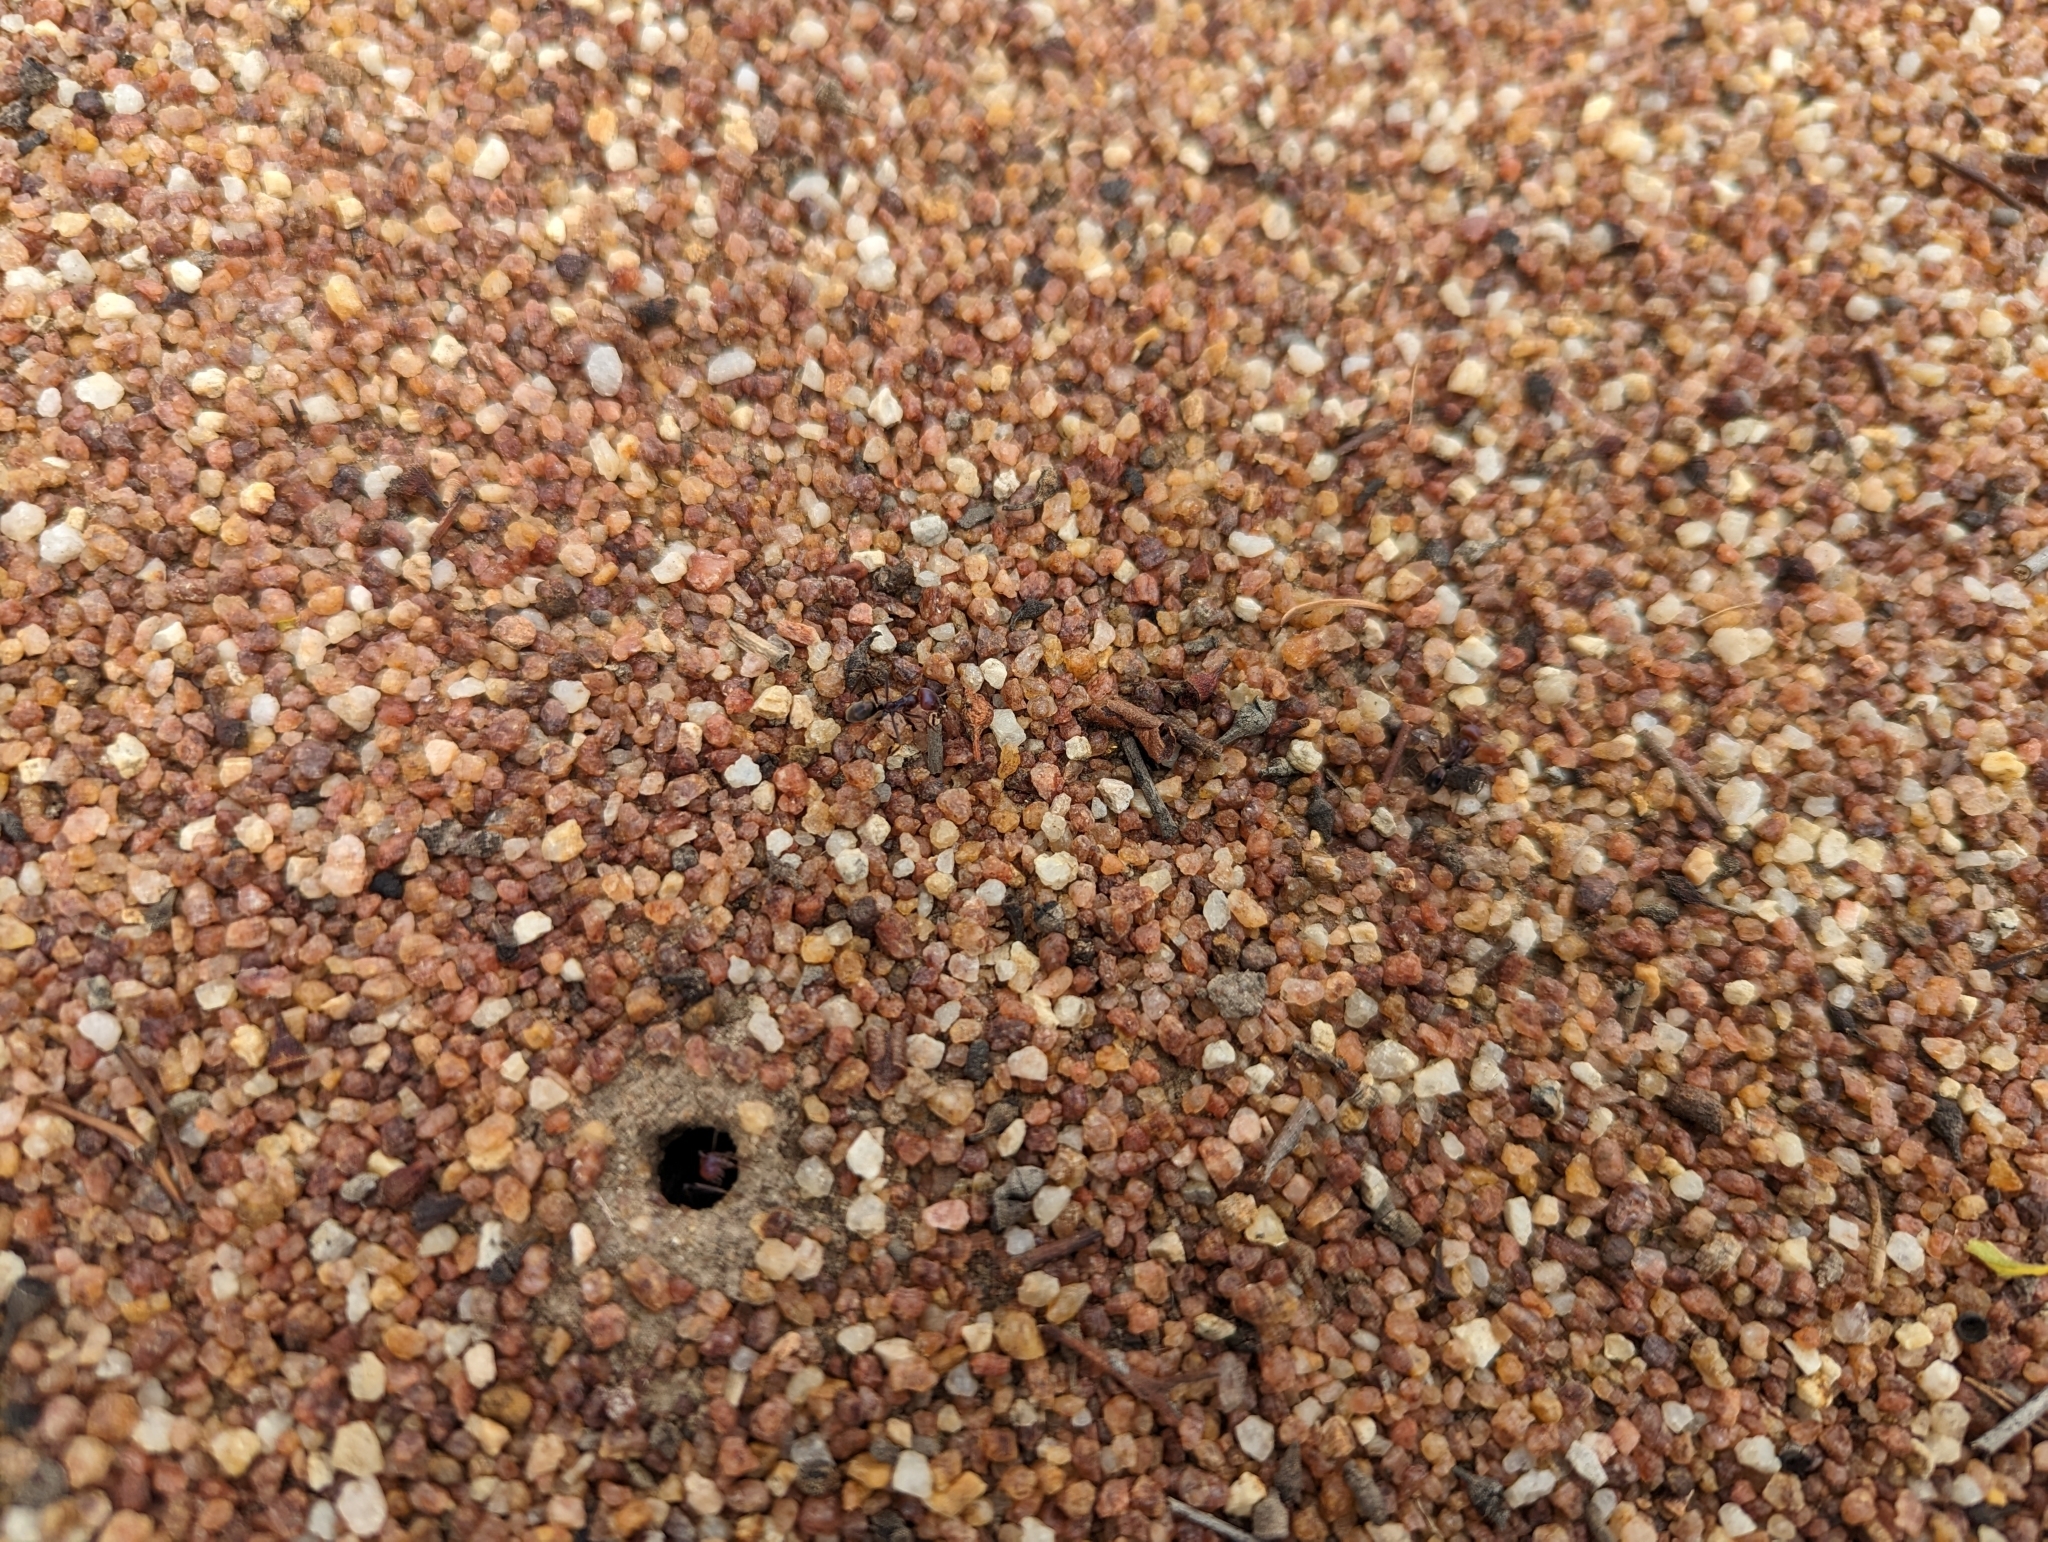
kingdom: Animalia
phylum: Arthropoda
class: Insecta
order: Hymenoptera
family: Formicidae
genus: Iridomyrmex
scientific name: Iridomyrmex purpureus
